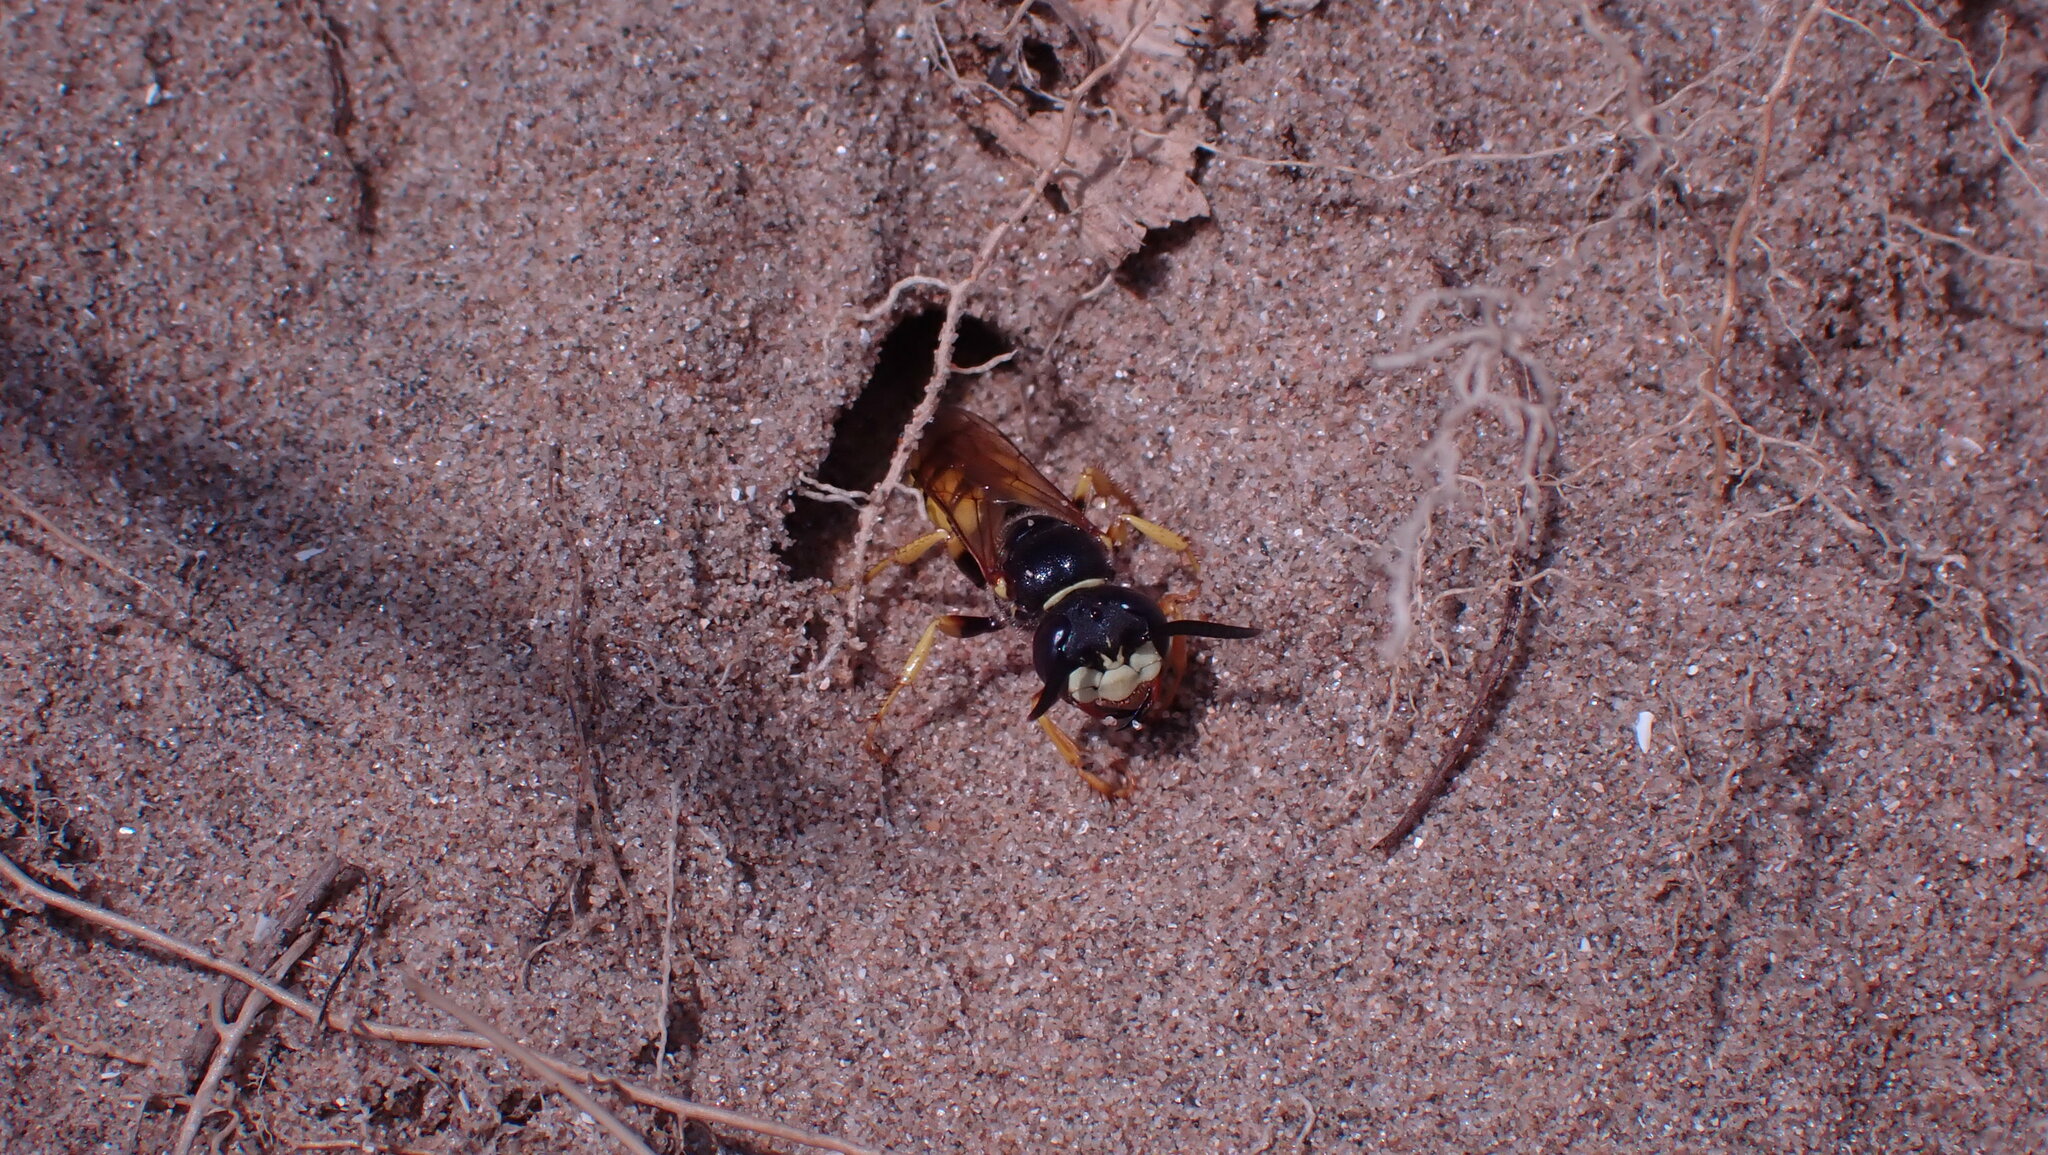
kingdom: Animalia
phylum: Arthropoda
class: Insecta
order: Hymenoptera
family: Crabronidae
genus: Philanthus
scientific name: Philanthus triangulum
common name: Bee wolf
